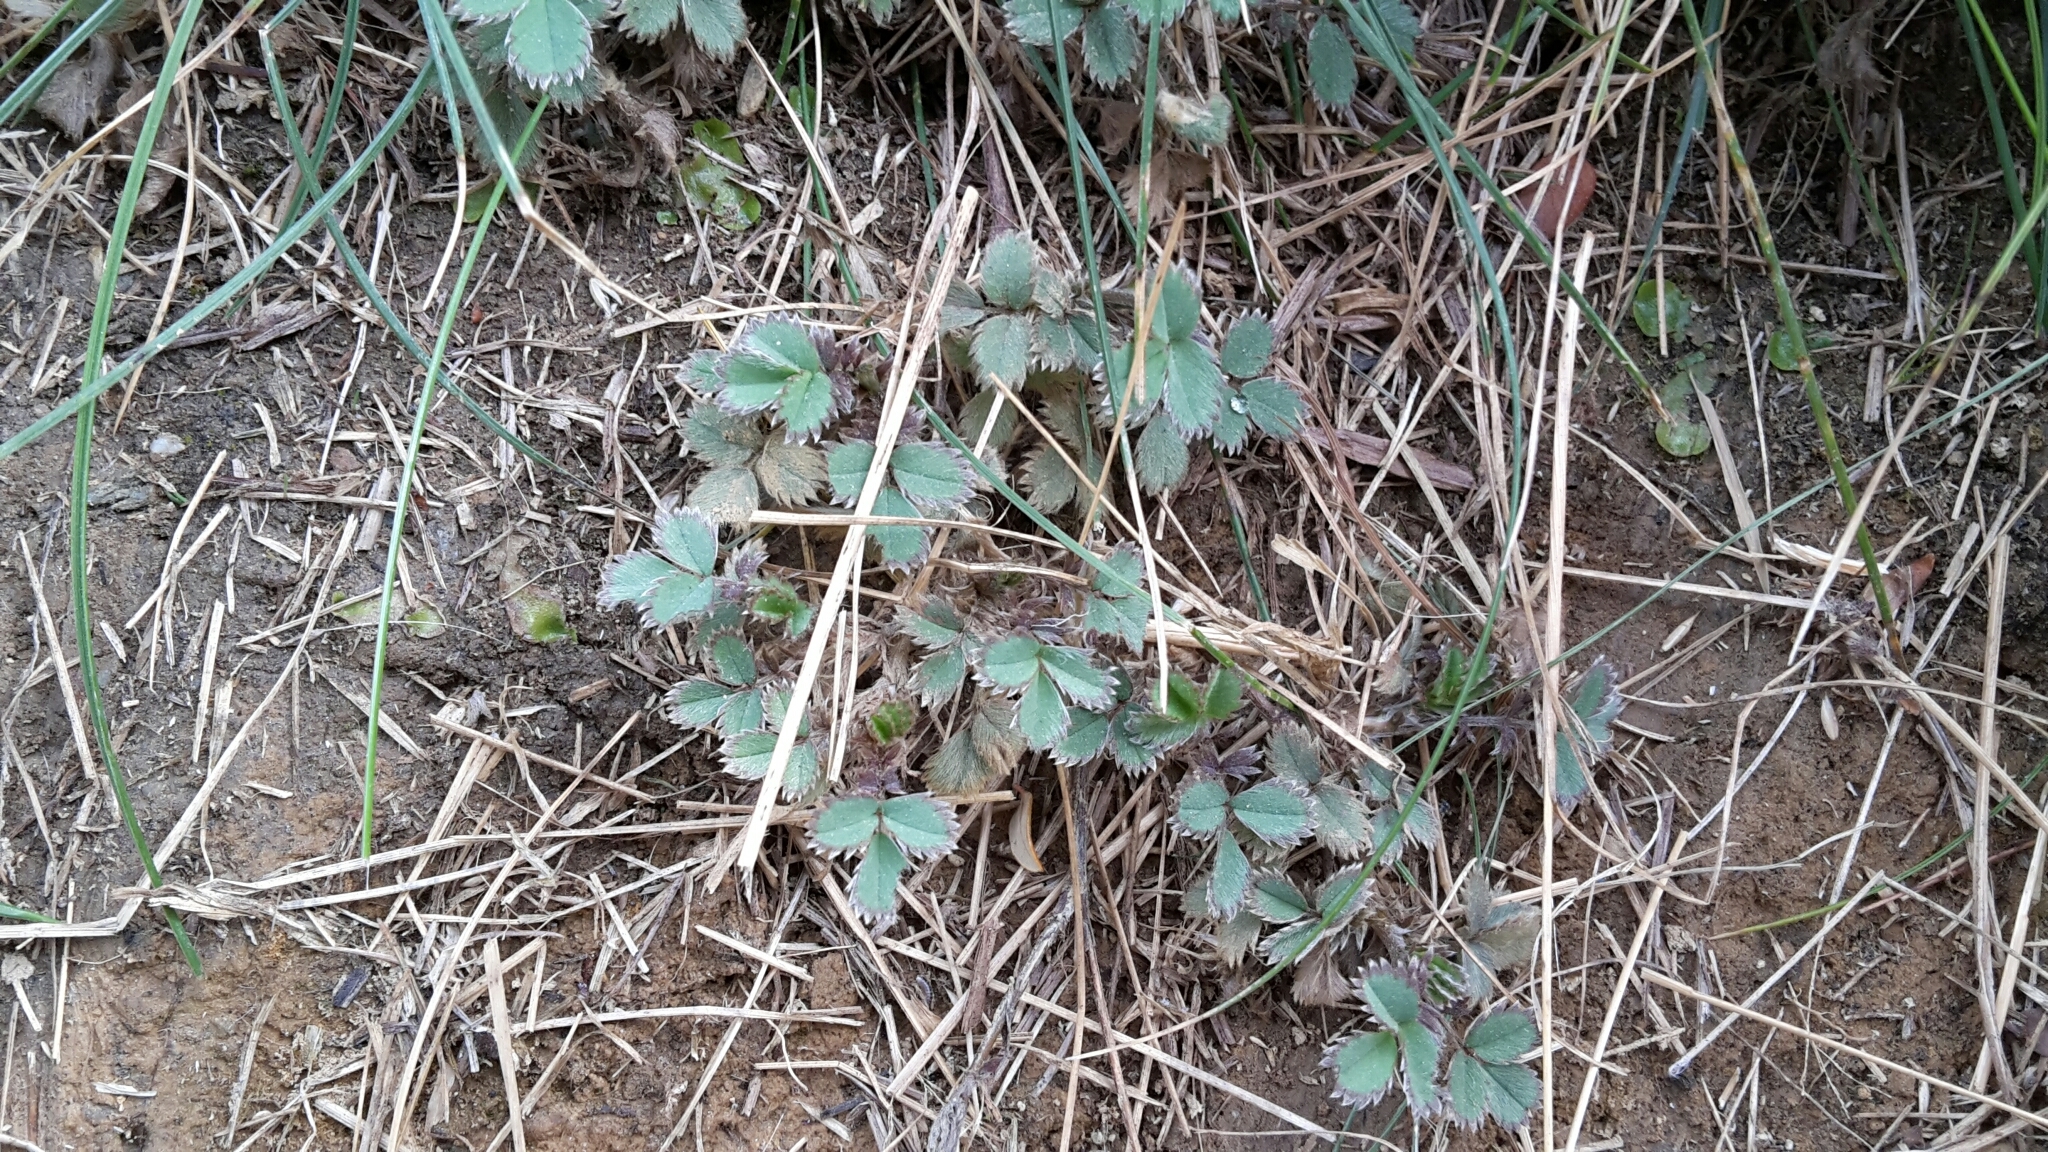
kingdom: Plantae
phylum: Tracheophyta
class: Magnoliopsida
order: Rosales
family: Rosaceae
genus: Acaena
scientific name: Acaena dumicola
